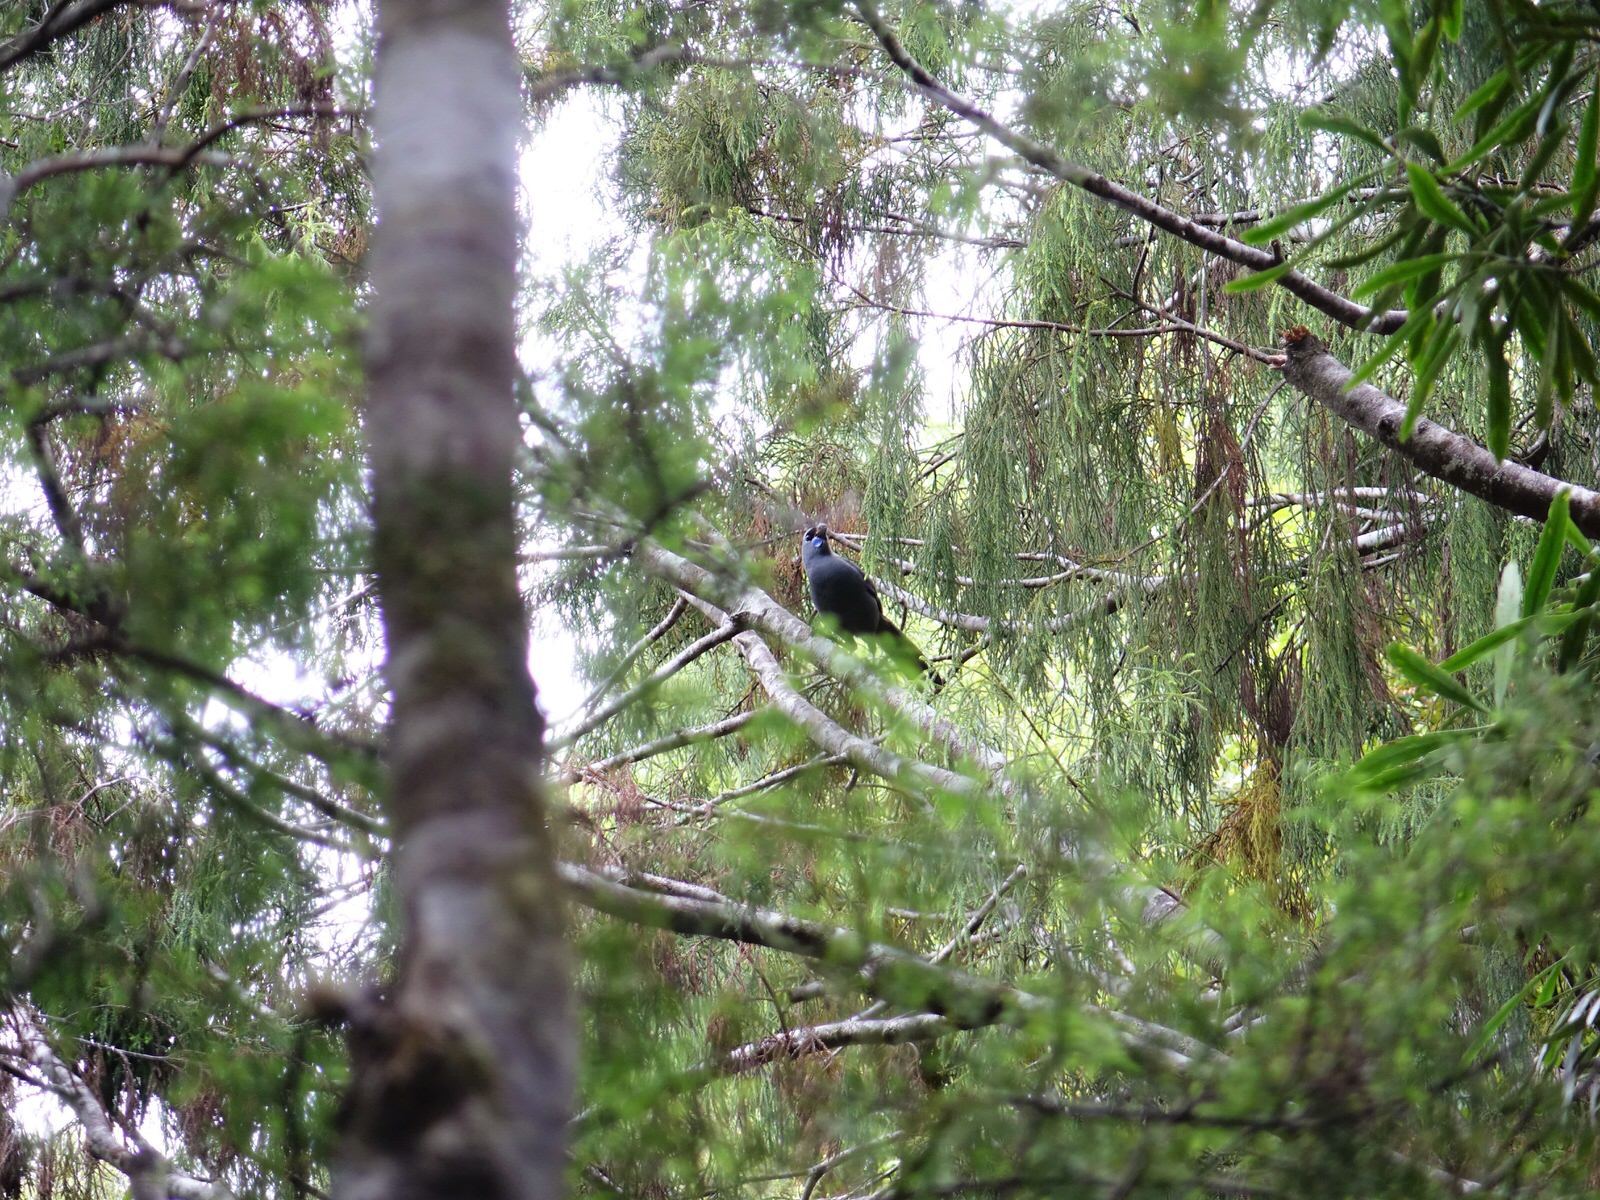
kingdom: Animalia
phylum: Chordata
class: Aves
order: Passeriformes
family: Callaeatidae
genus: Callaeas
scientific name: Callaeas cinereus
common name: South island kokako
